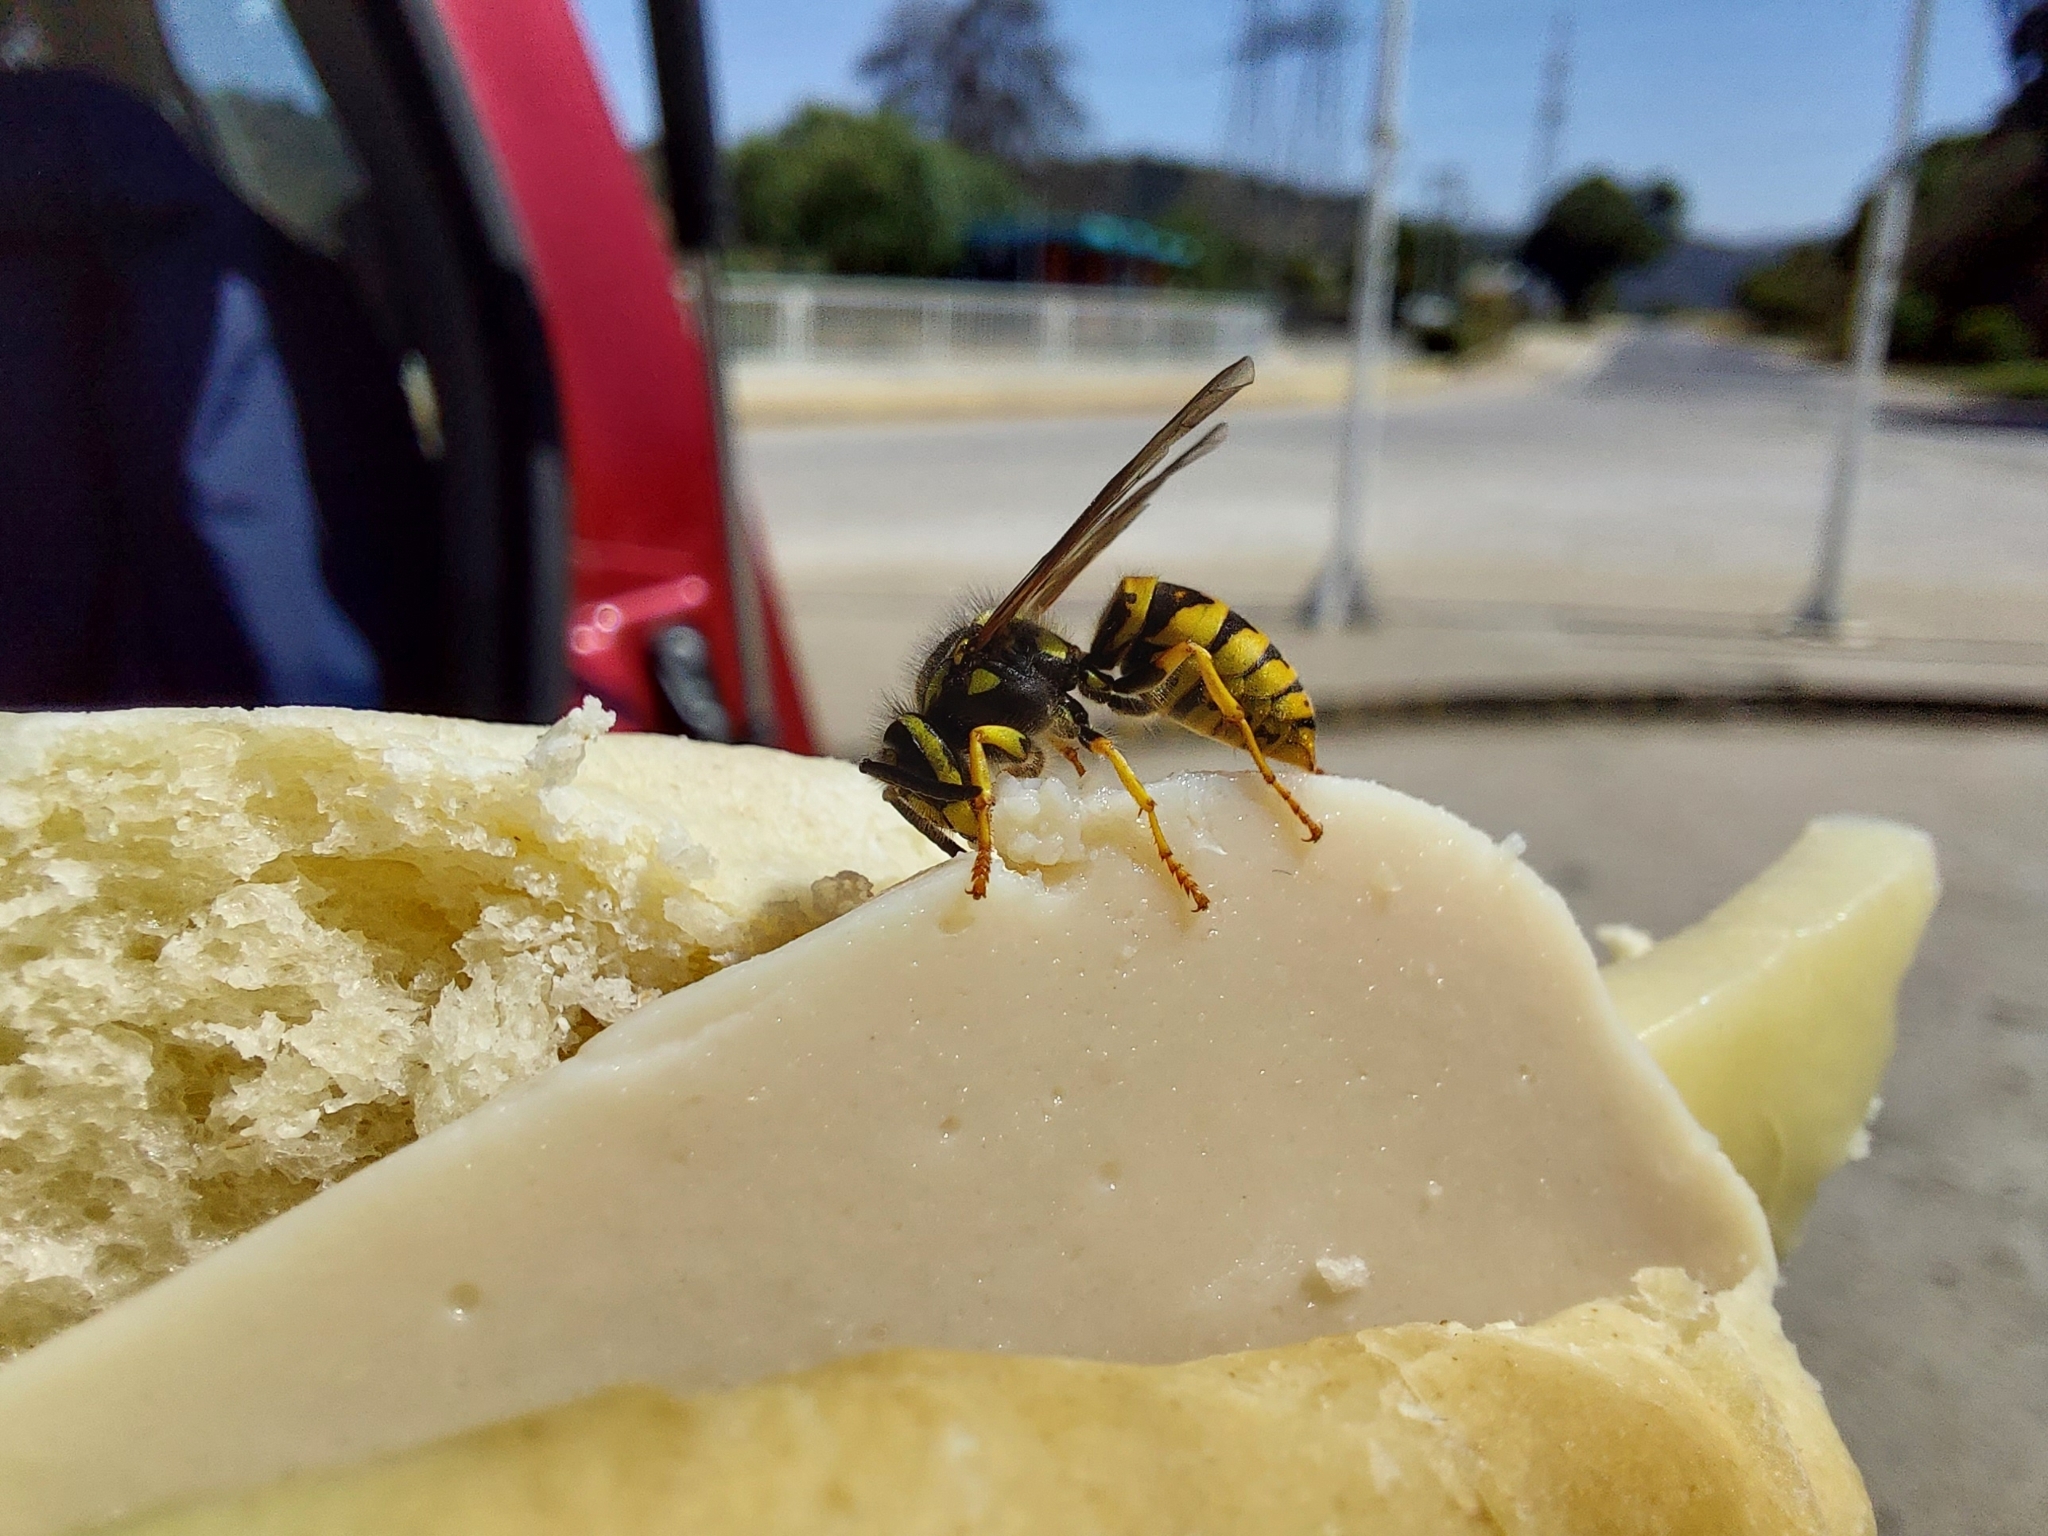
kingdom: Animalia
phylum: Arthropoda
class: Insecta
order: Hymenoptera
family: Vespidae
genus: Vespula
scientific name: Vespula germanica
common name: German wasp
